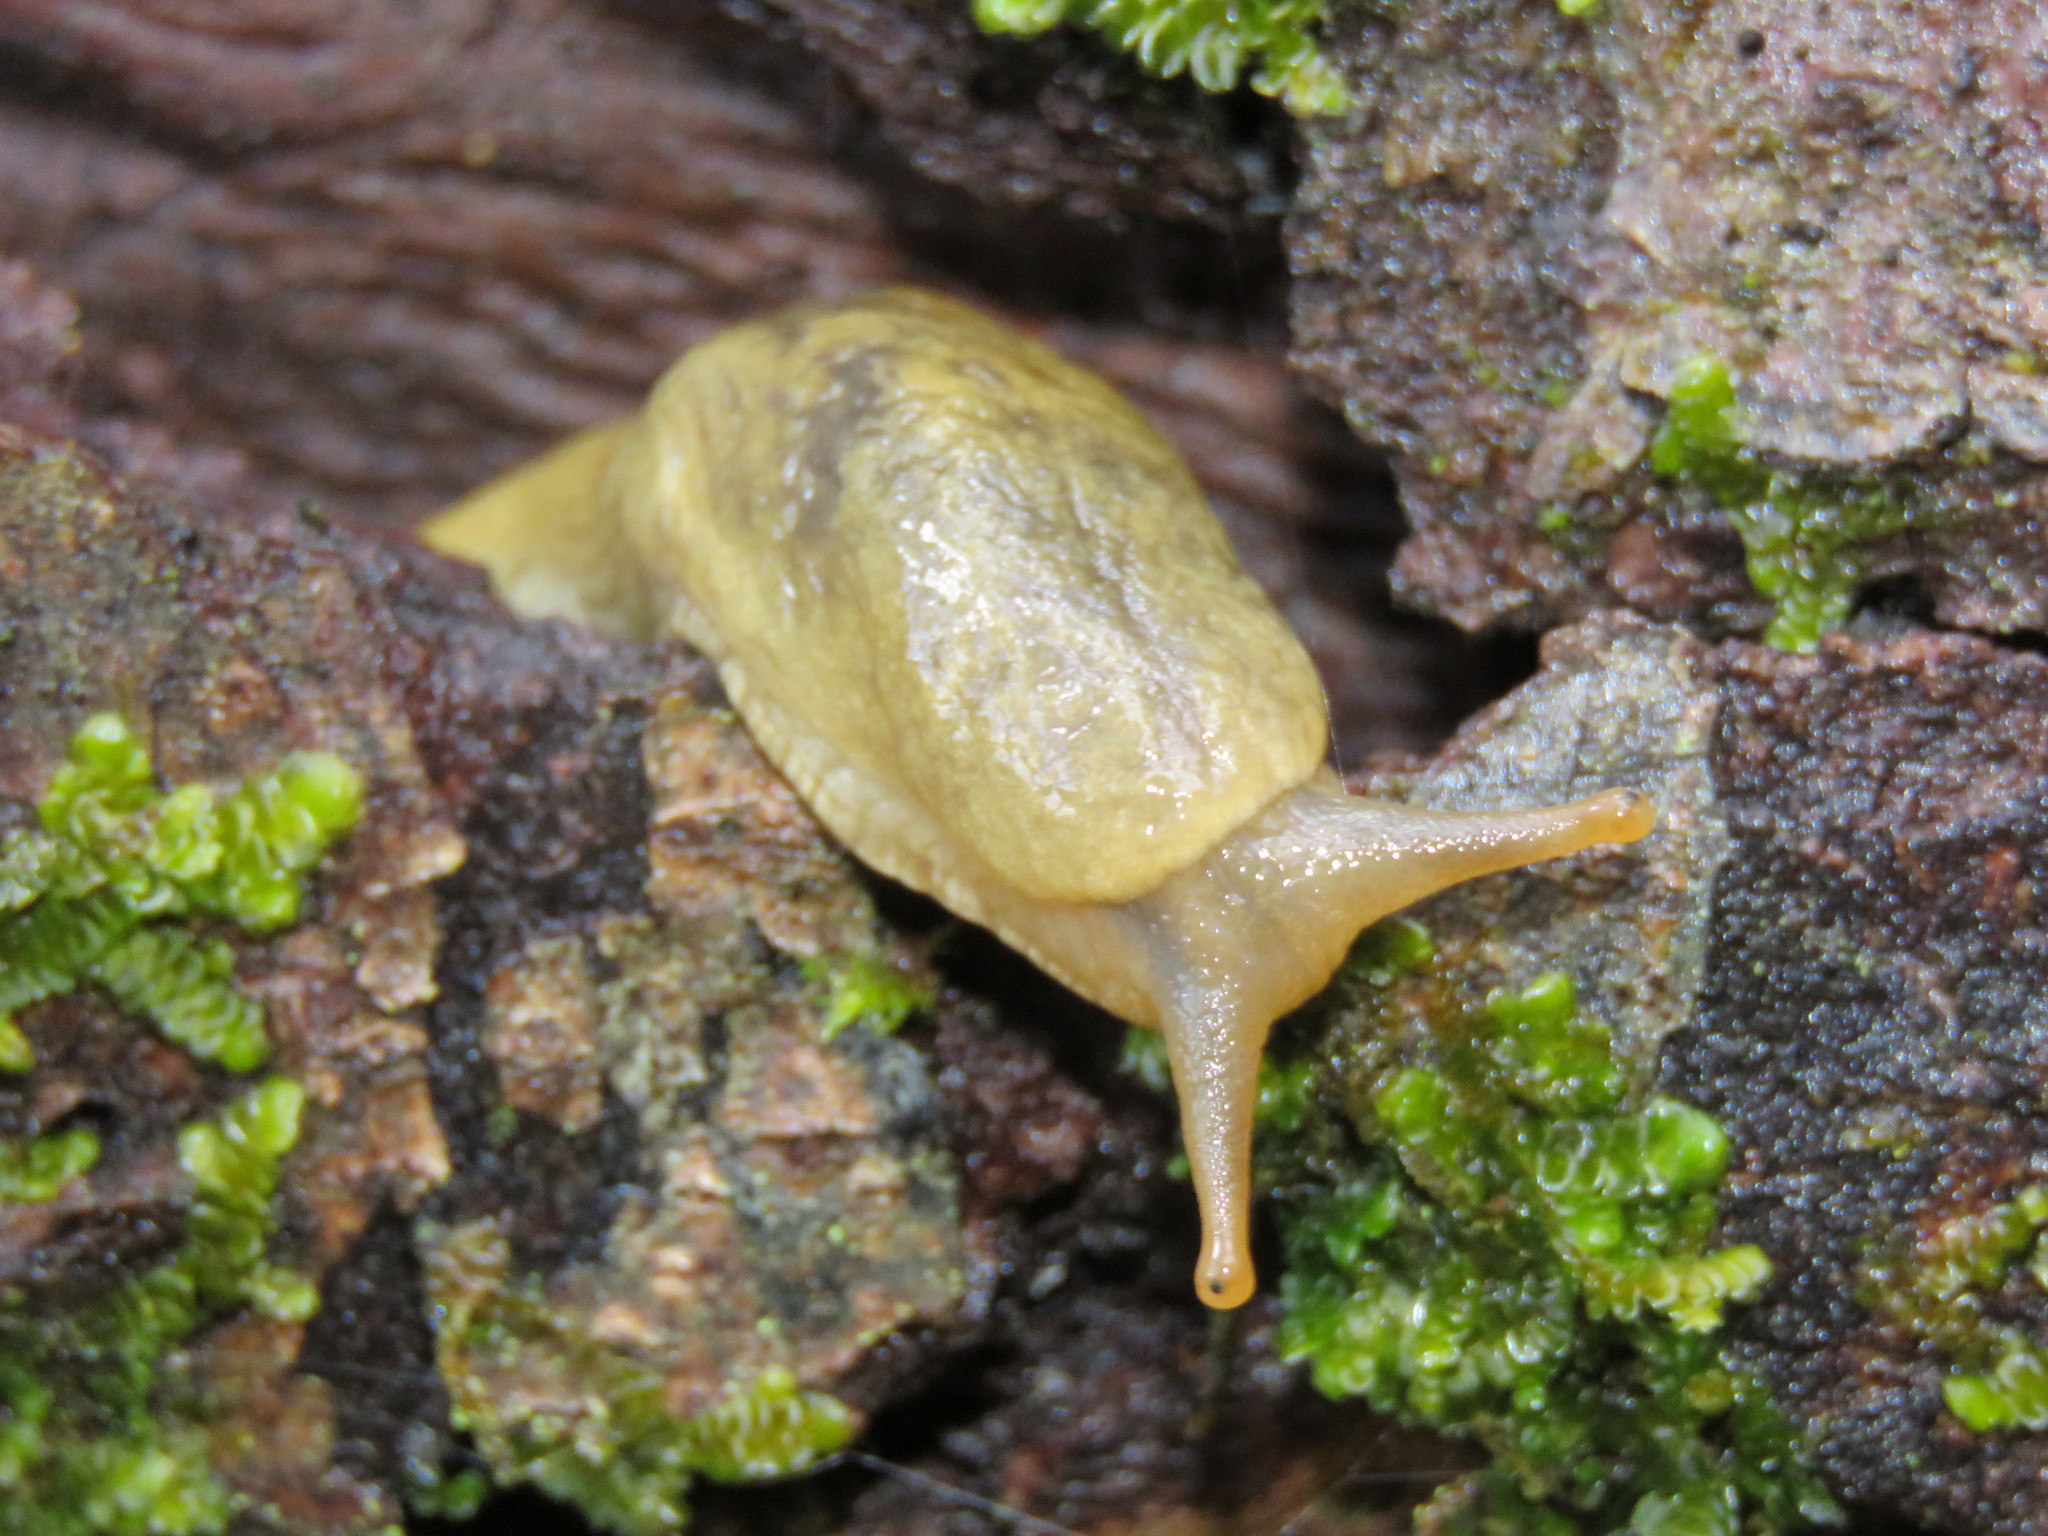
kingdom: Animalia
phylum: Mollusca
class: Gastropoda
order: Stylommatophora
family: Ariolimacidae
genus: Ariolimax
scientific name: Ariolimax columbianus
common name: Pacific banana slug
